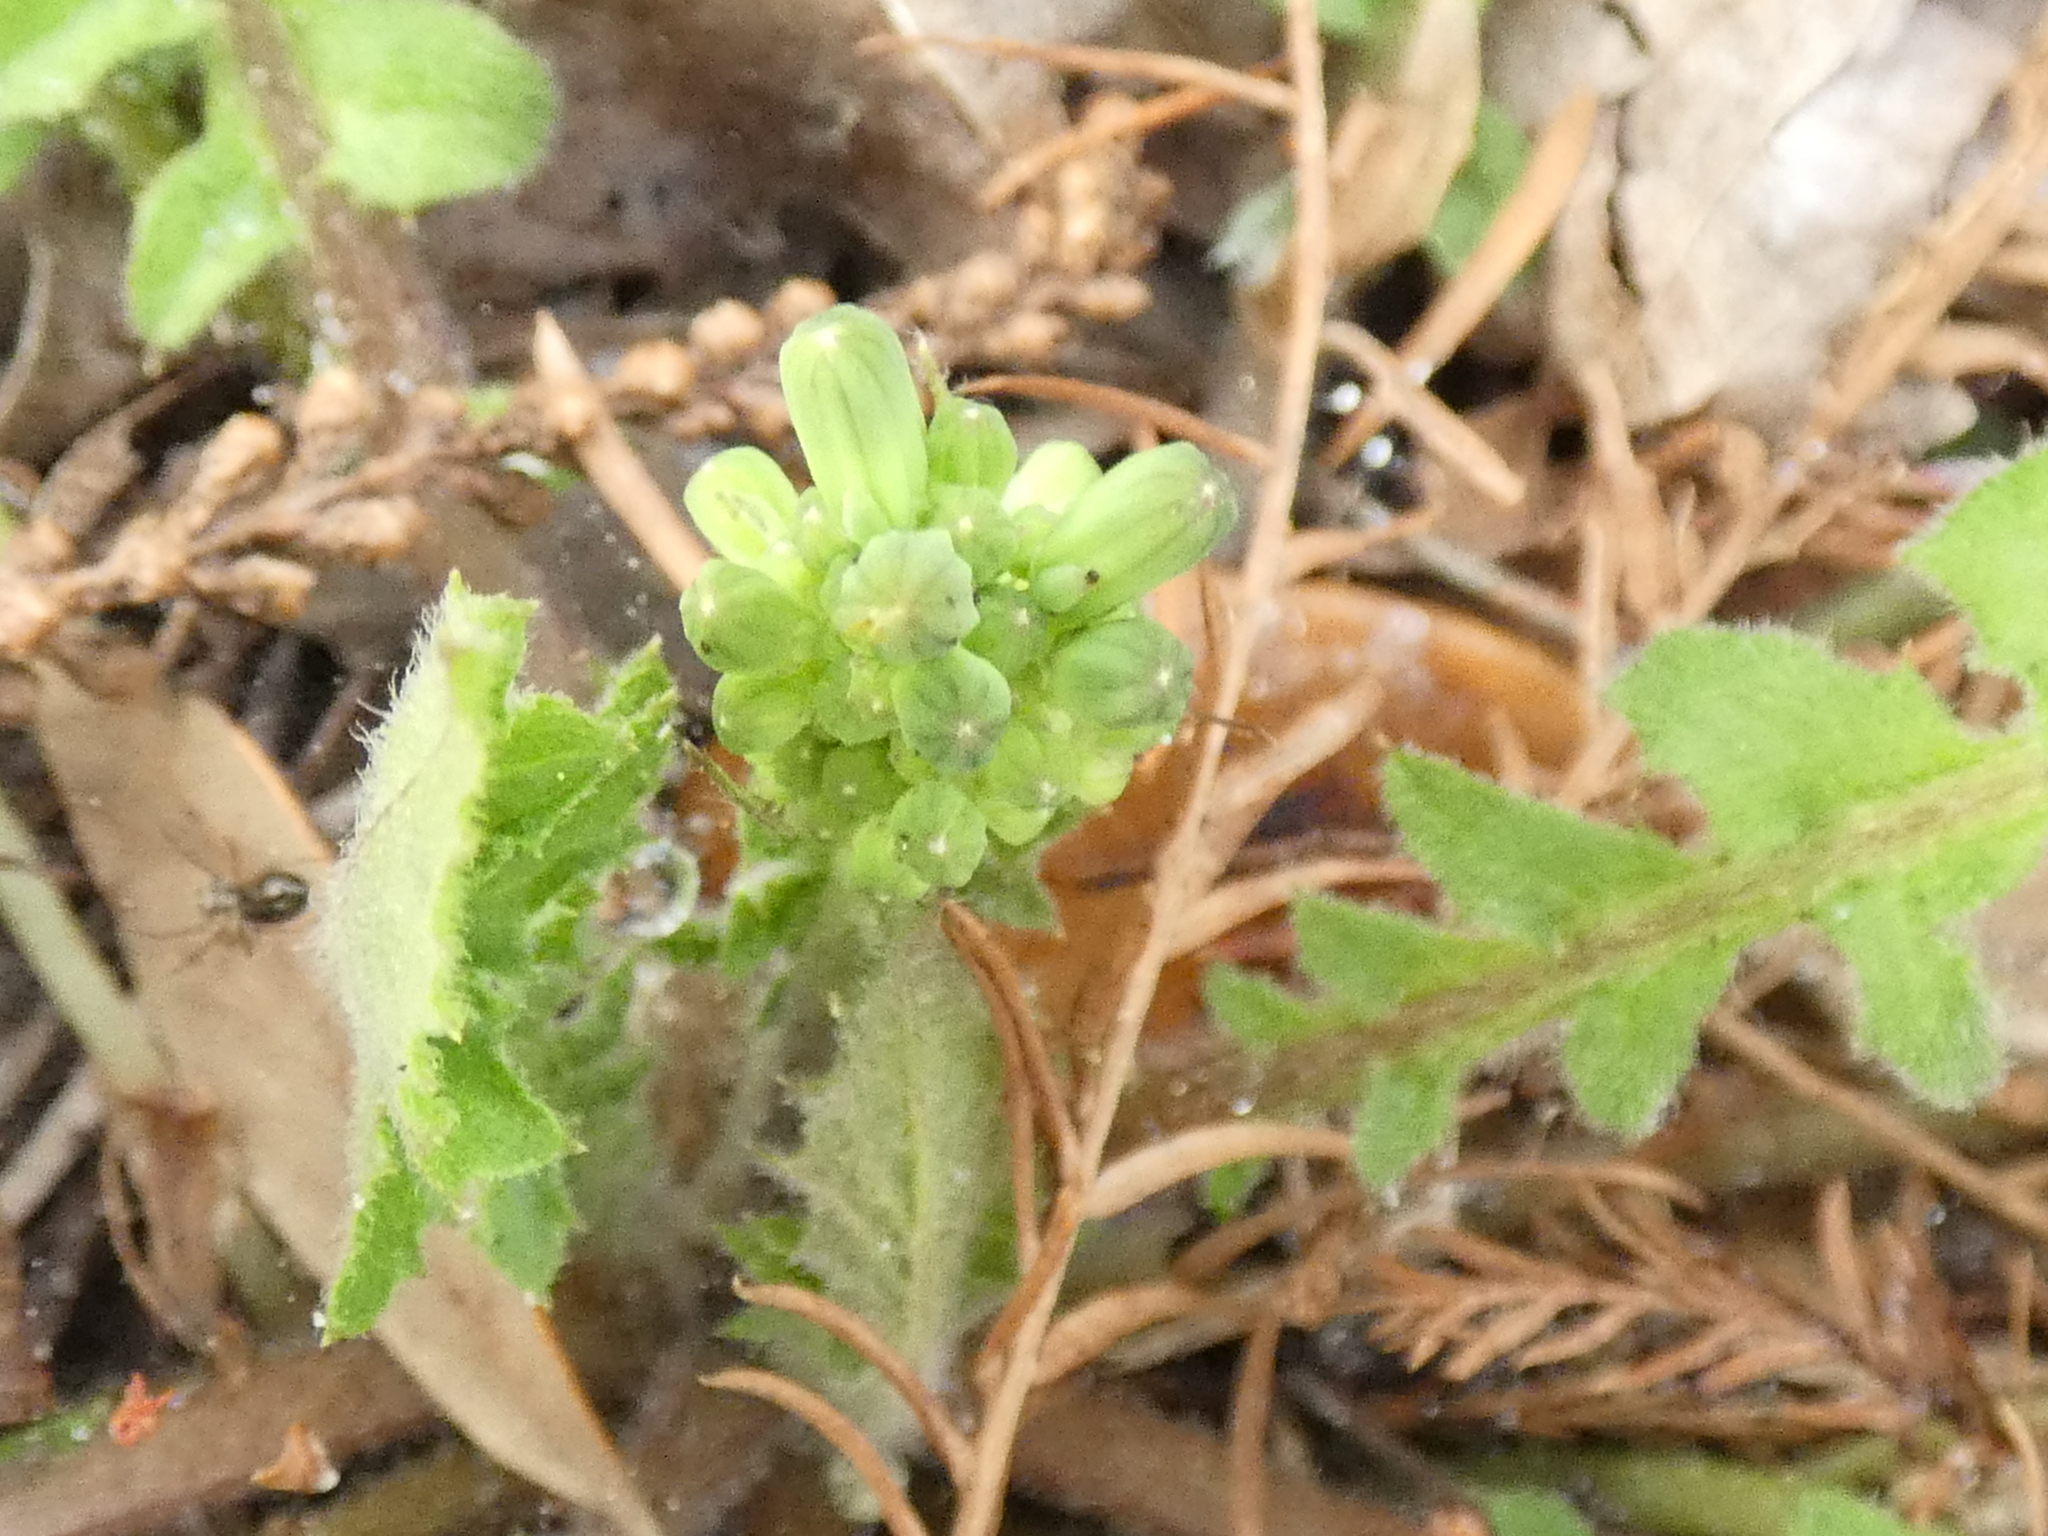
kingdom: Plantae
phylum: Tracheophyta
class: Magnoliopsida
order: Asterales
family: Asteraceae
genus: Youngia
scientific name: Youngia japonica
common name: Oriental false hawksbeard
